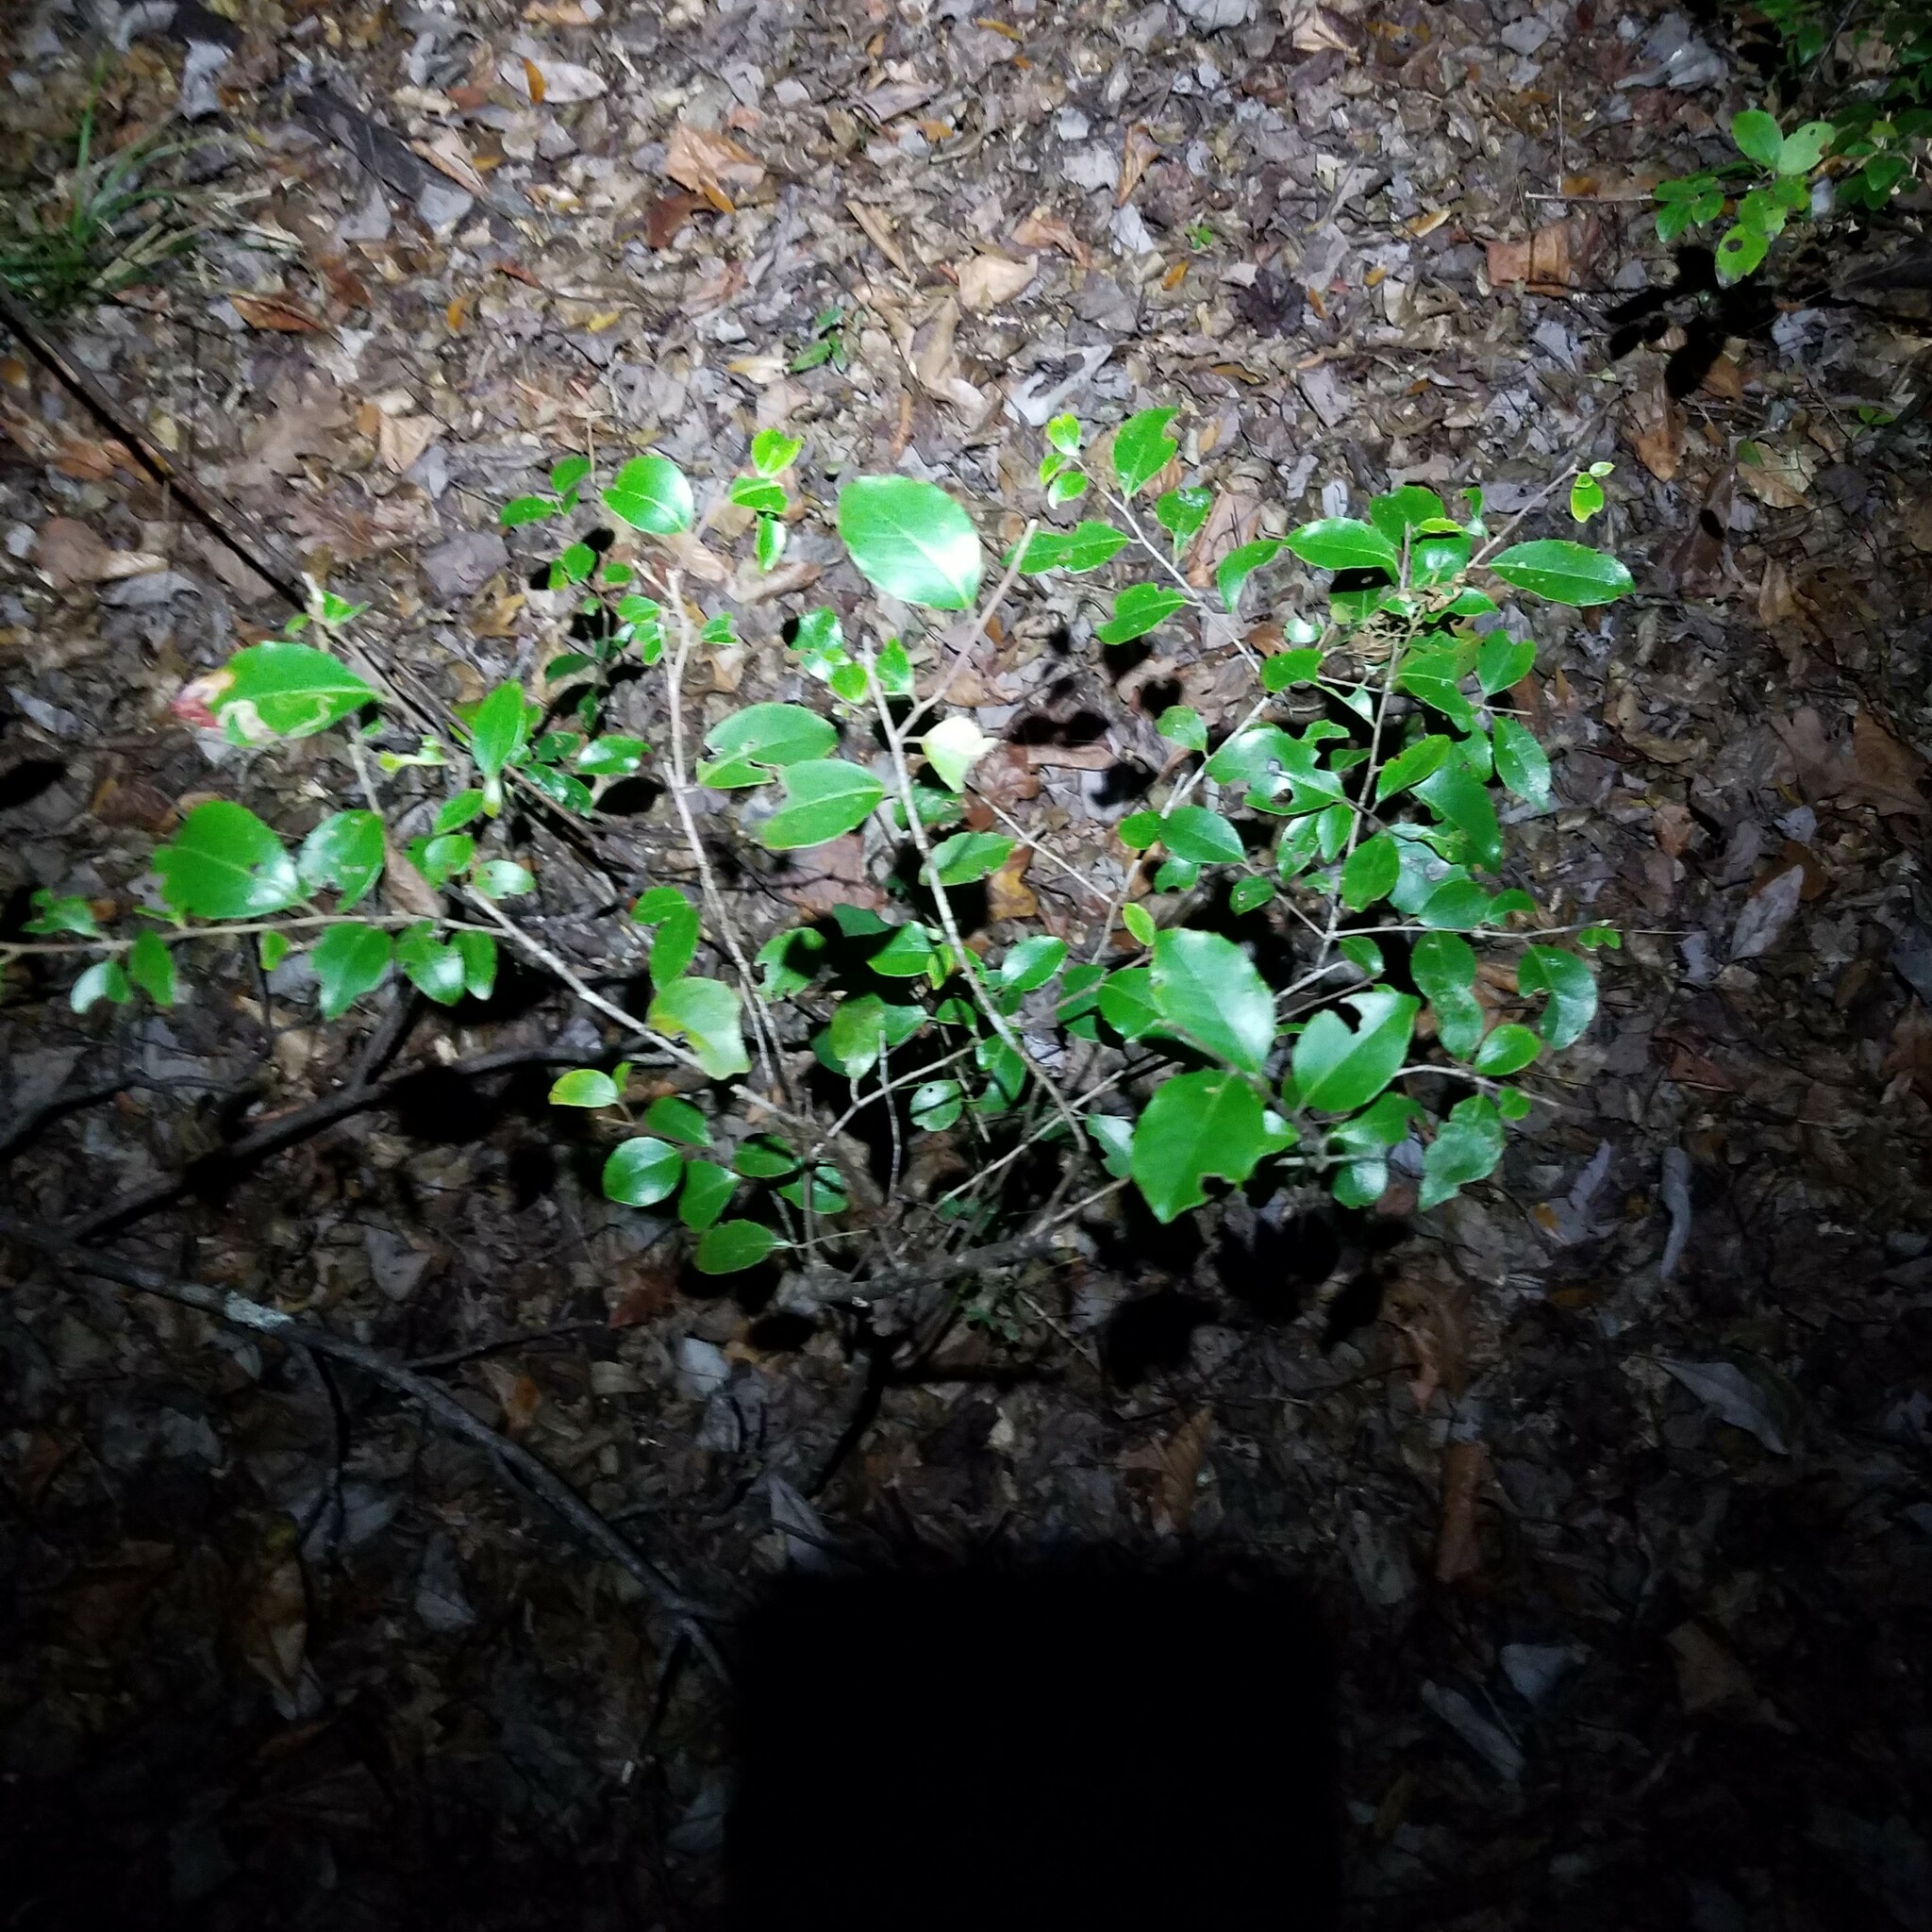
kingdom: Plantae
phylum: Tracheophyta
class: Magnoliopsida
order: Aquifoliales
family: Aquifoliaceae
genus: Ilex
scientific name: Ilex coriacea
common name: Sweet gallberry
